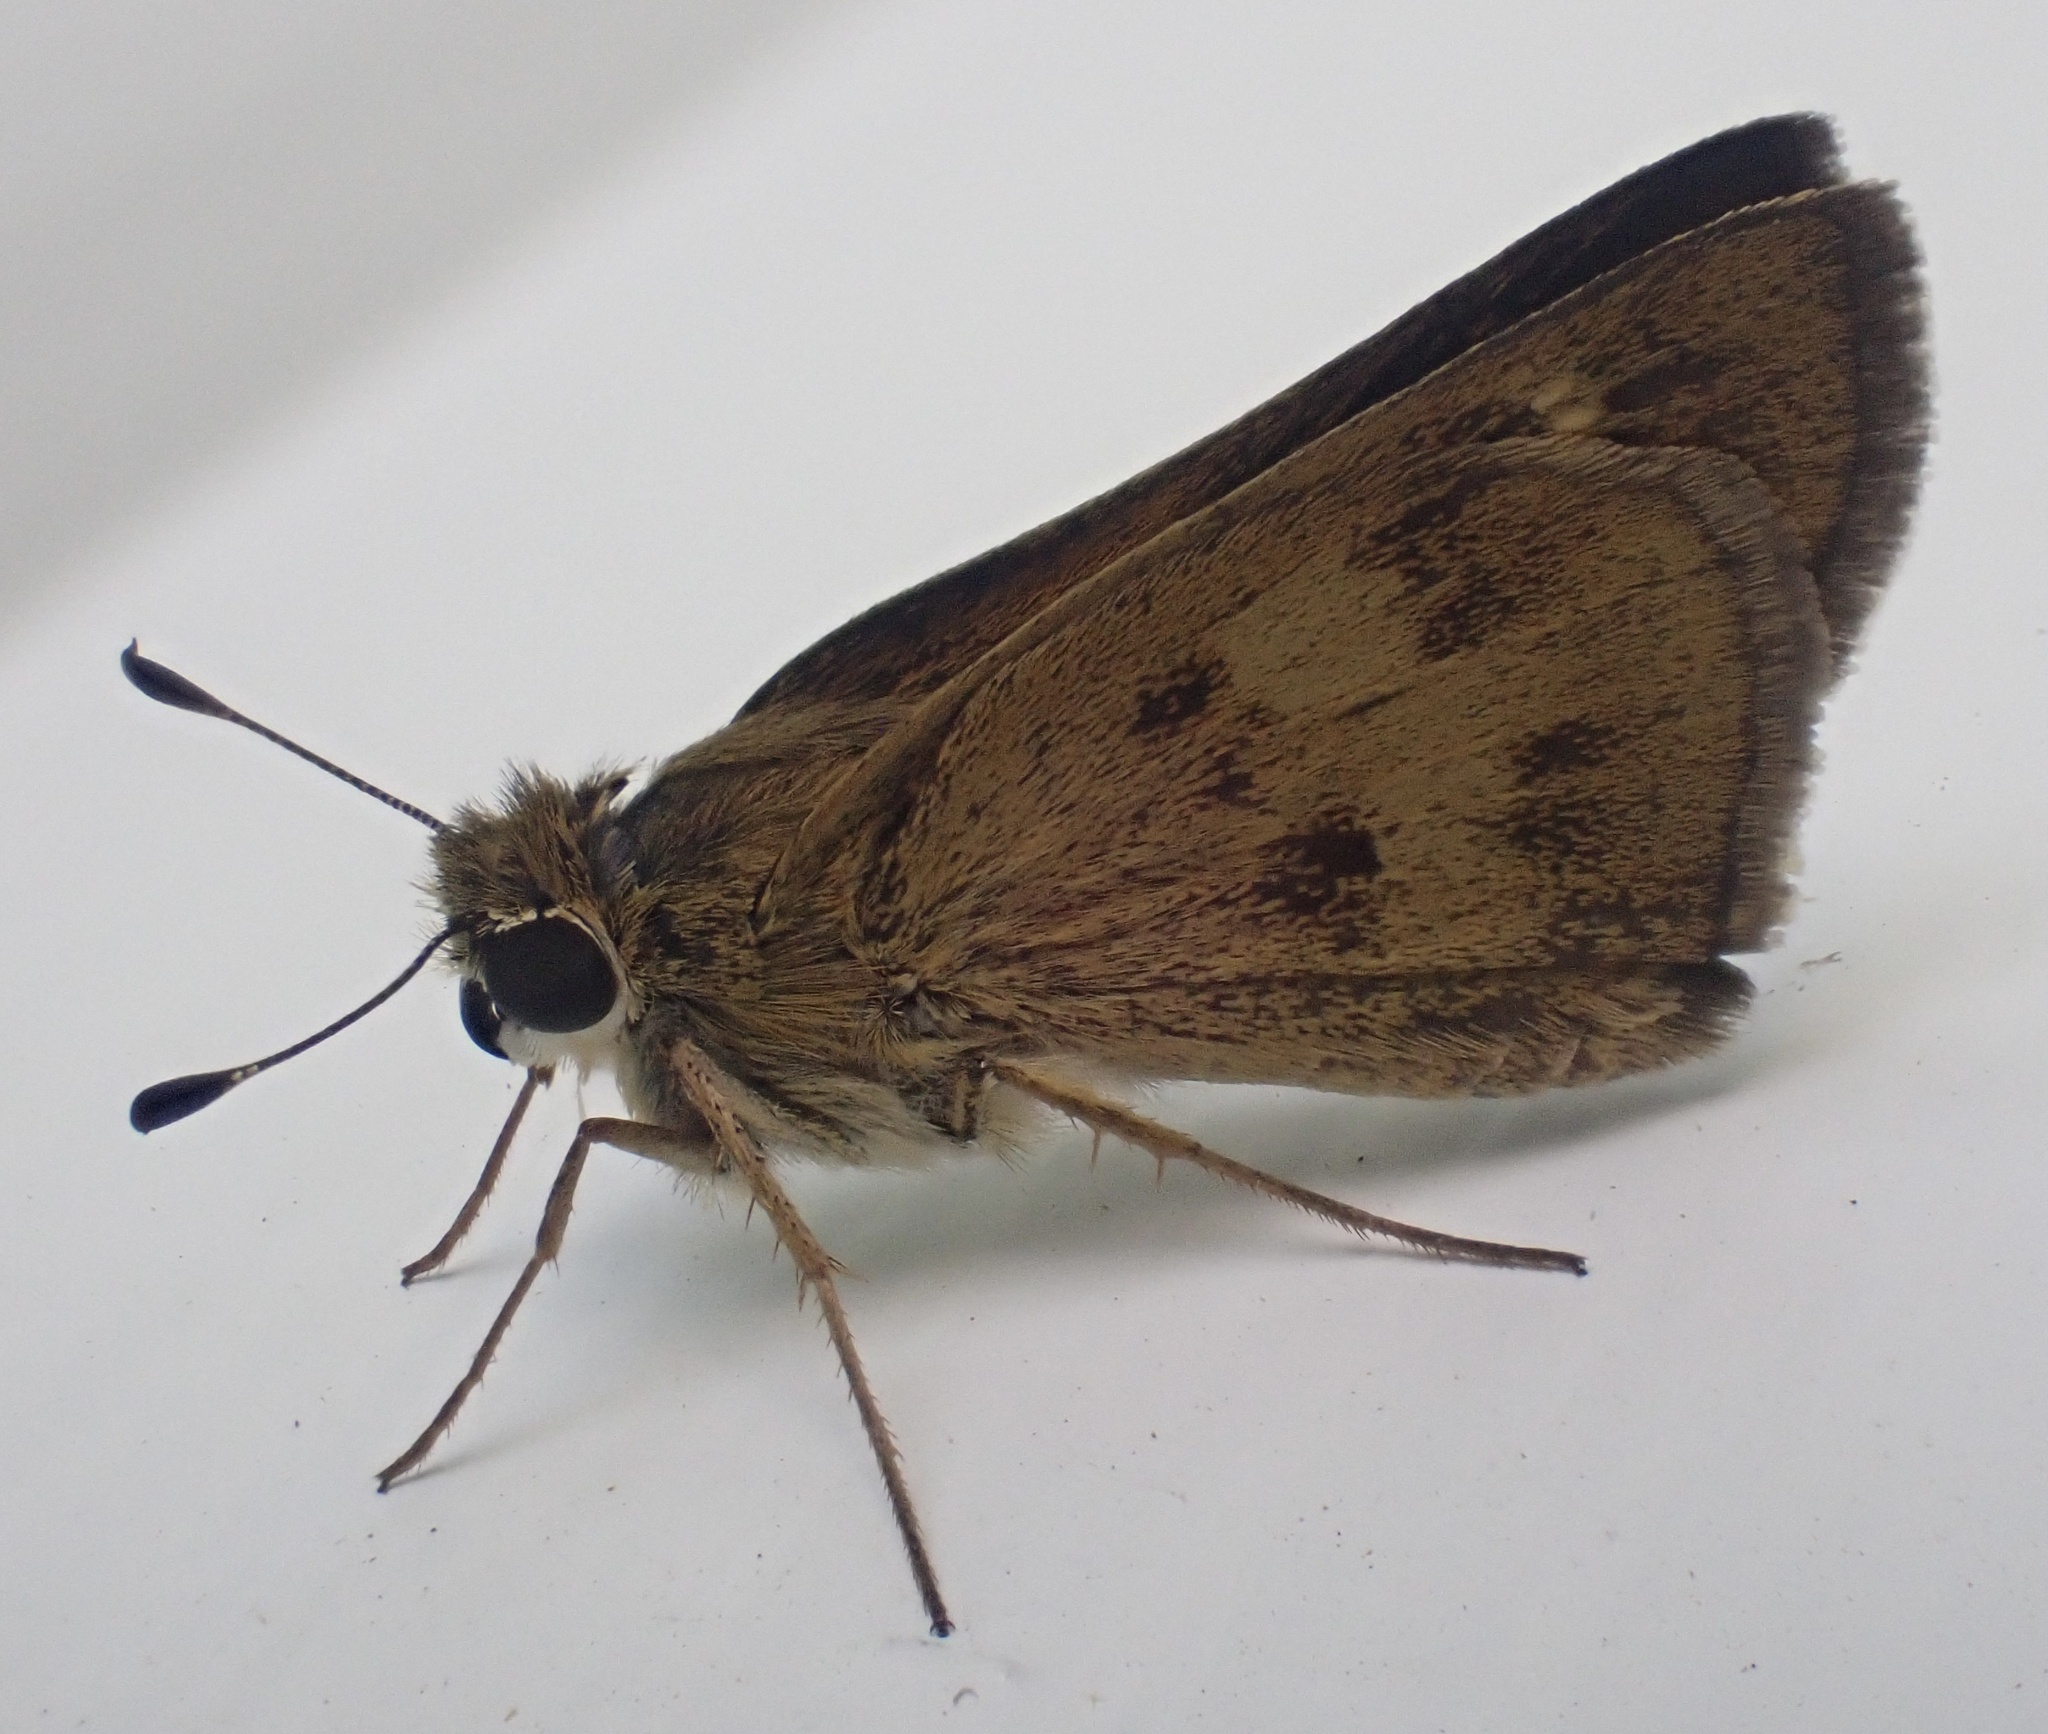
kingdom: Animalia
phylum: Arthropoda
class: Insecta
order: Lepidoptera
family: Hesperiidae
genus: Polites
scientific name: Polites vibex
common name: Whirlabout
